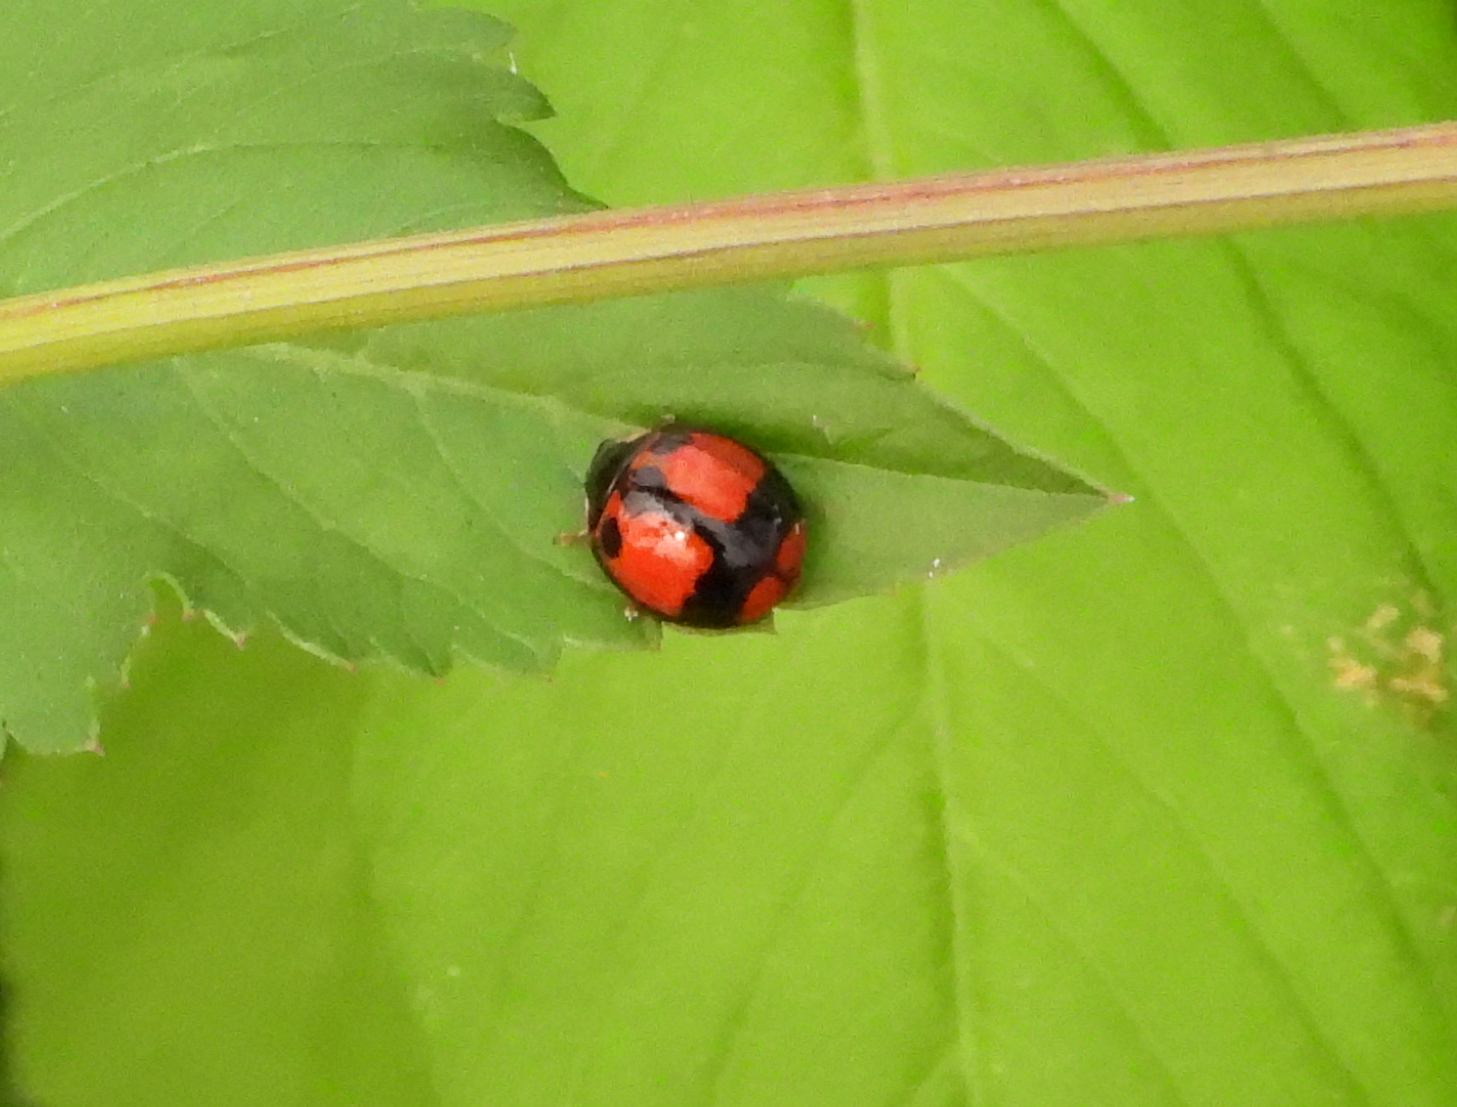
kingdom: Animalia
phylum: Arthropoda
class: Insecta
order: Coleoptera
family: Coccinellidae
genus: Coelophora
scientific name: Coelophora biplagiata
